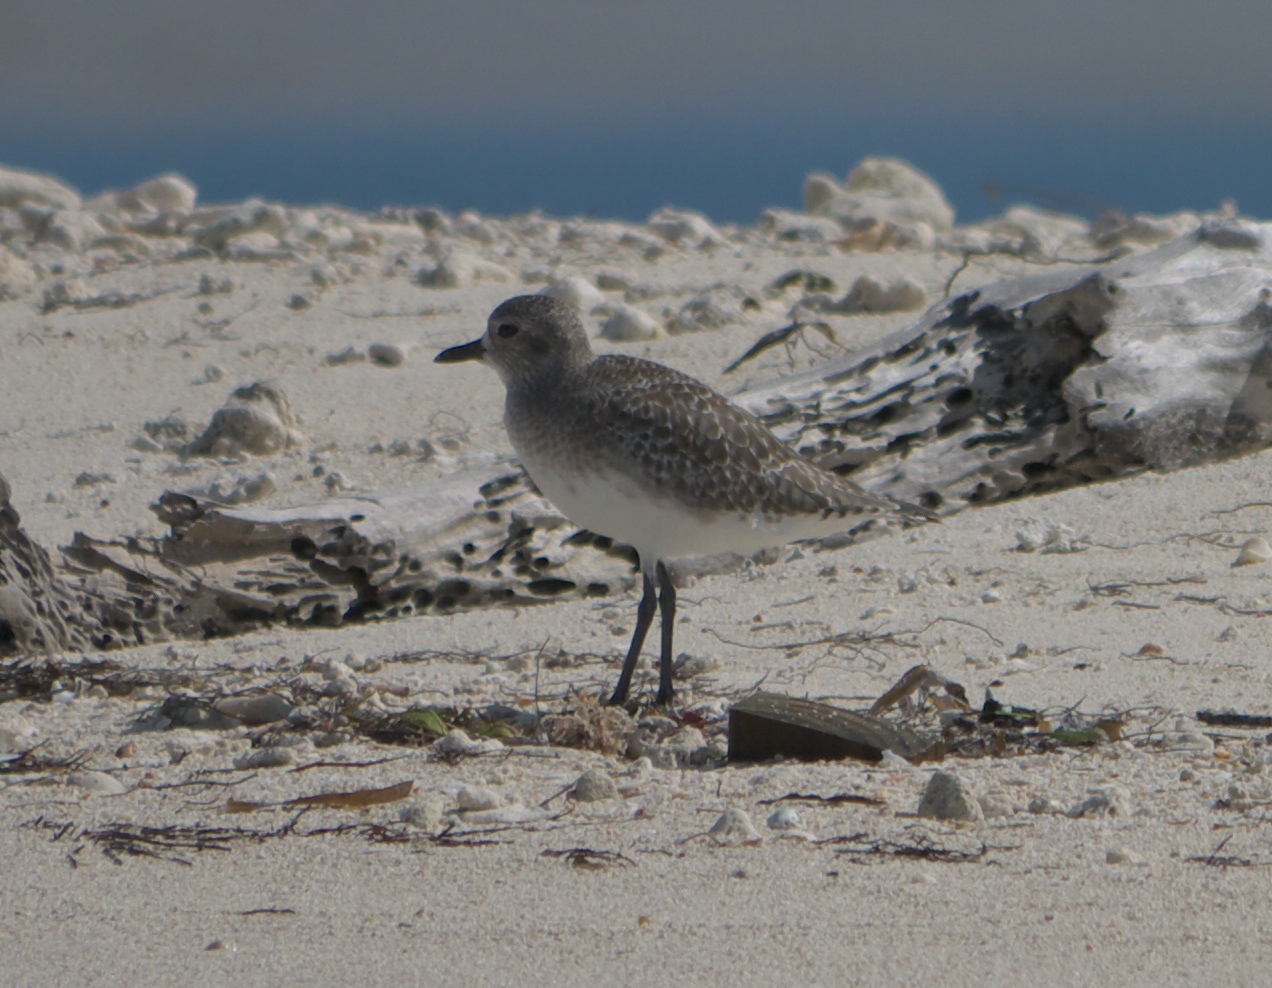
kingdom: Animalia
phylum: Chordata
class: Aves
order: Charadriiformes
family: Charadriidae
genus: Pluvialis
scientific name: Pluvialis squatarola
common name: Grey plover
